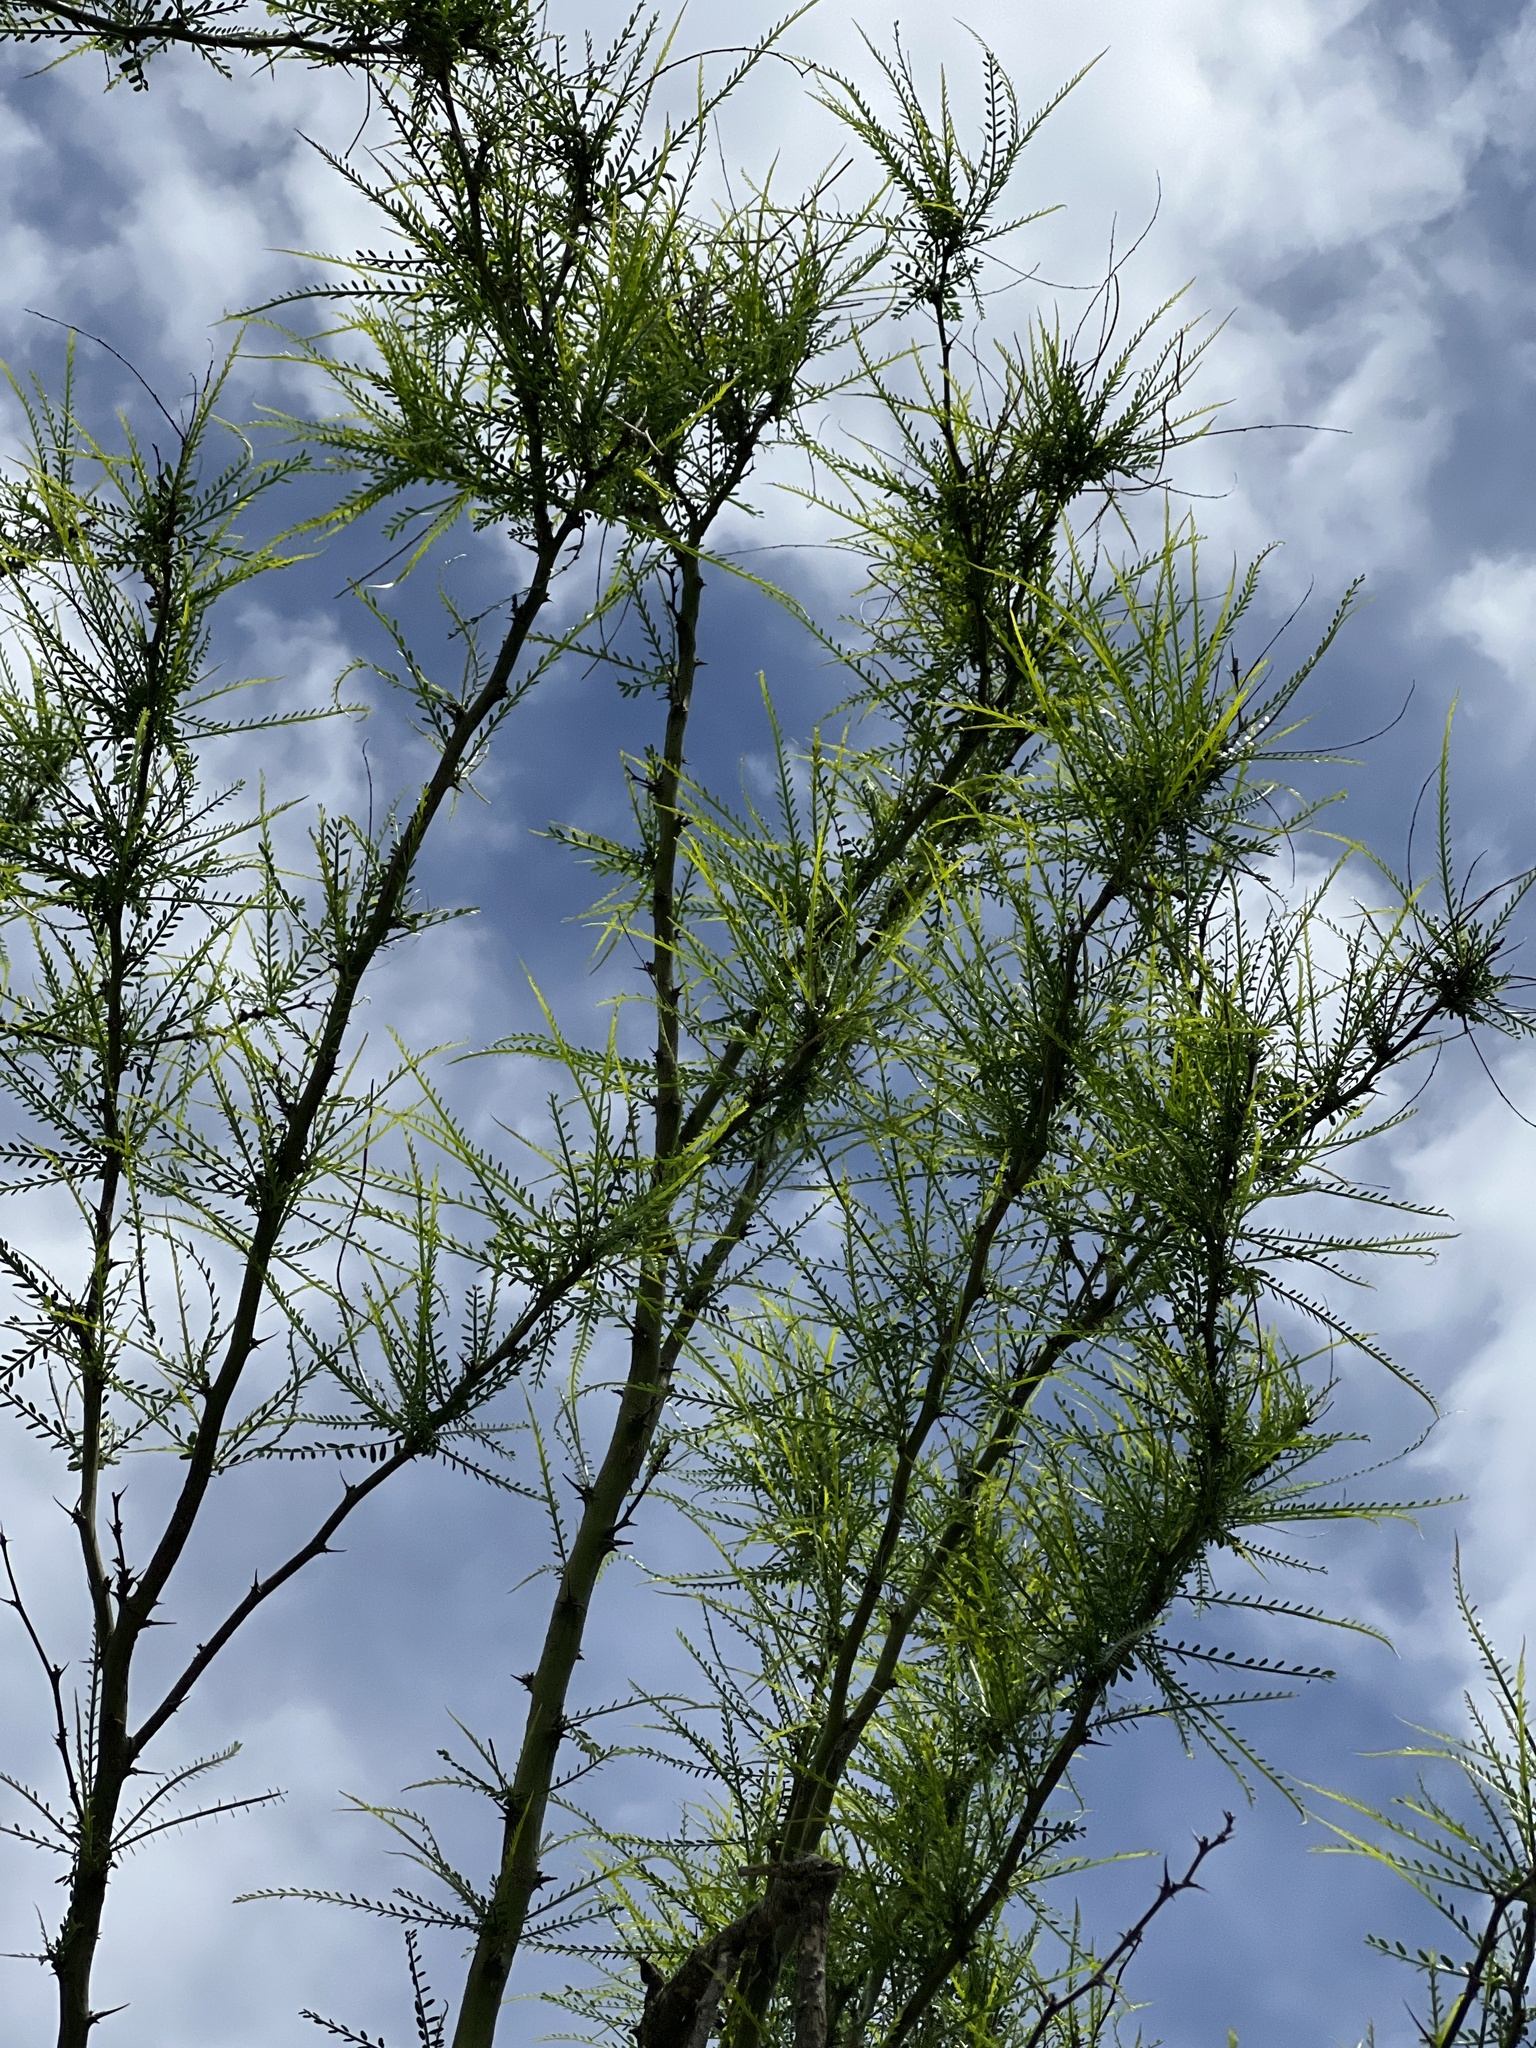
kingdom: Plantae
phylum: Tracheophyta
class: Magnoliopsida
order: Fabales
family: Fabaceae
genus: Parkinsonia
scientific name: Parkinsonia aculeata
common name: Jerusalem thorn
